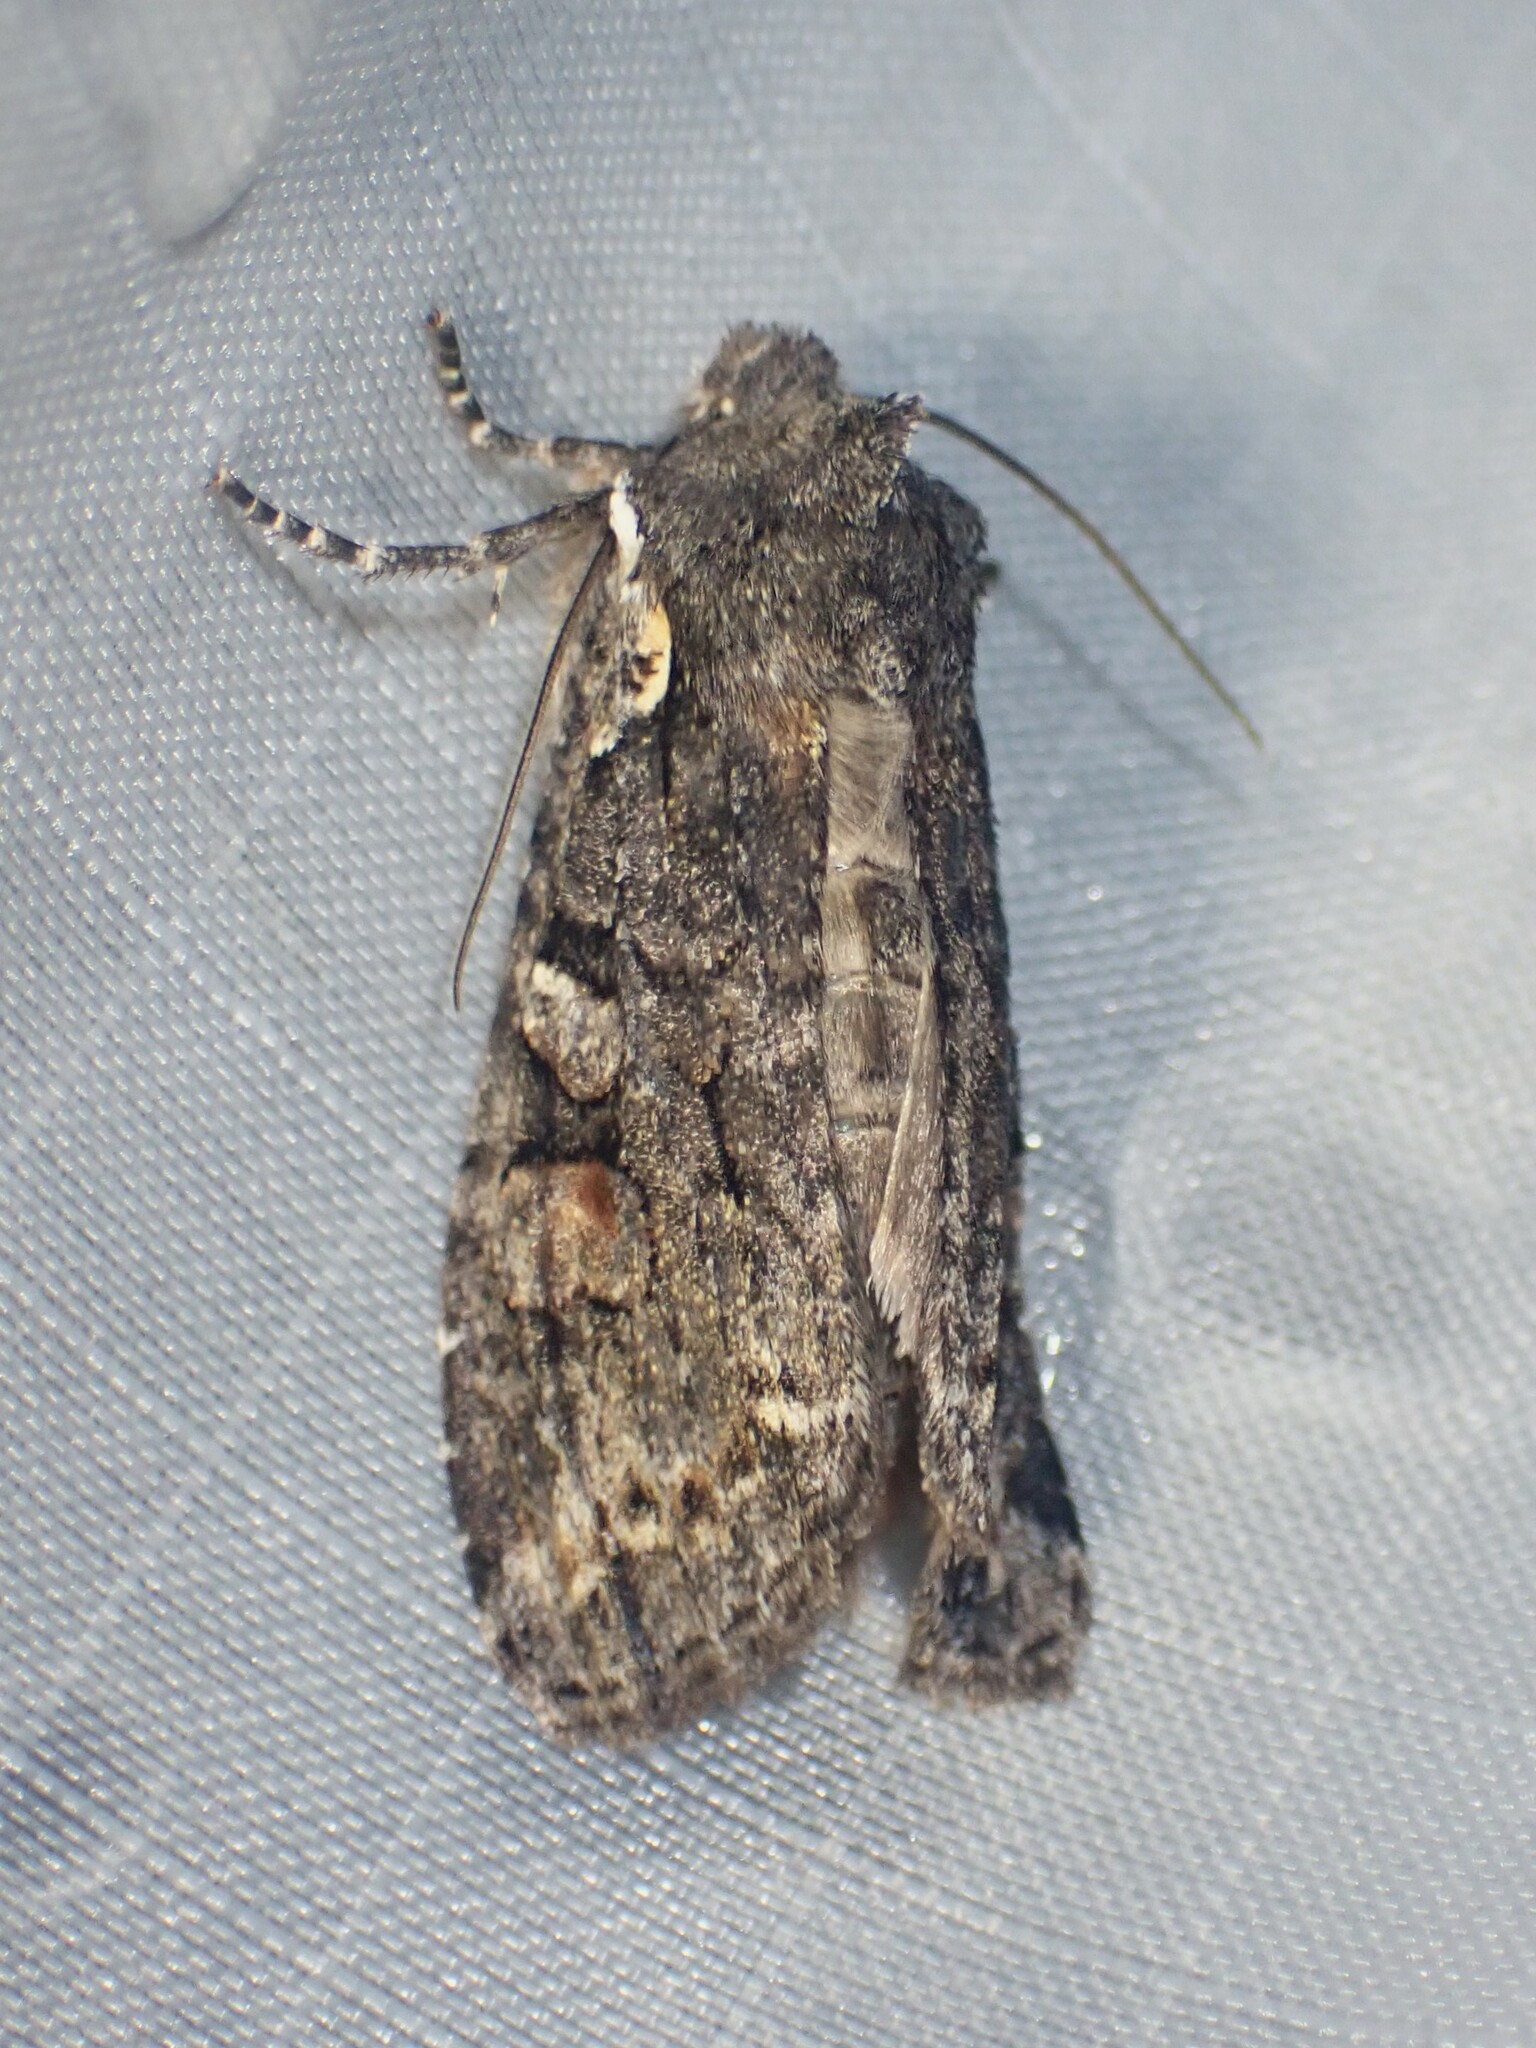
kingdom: Animalia
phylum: Arthropoda
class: Insecta
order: Lepidoptera
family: Noctuidae
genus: Lithophane
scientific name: Lithophane pexata
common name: Plush-naped pinion moth
